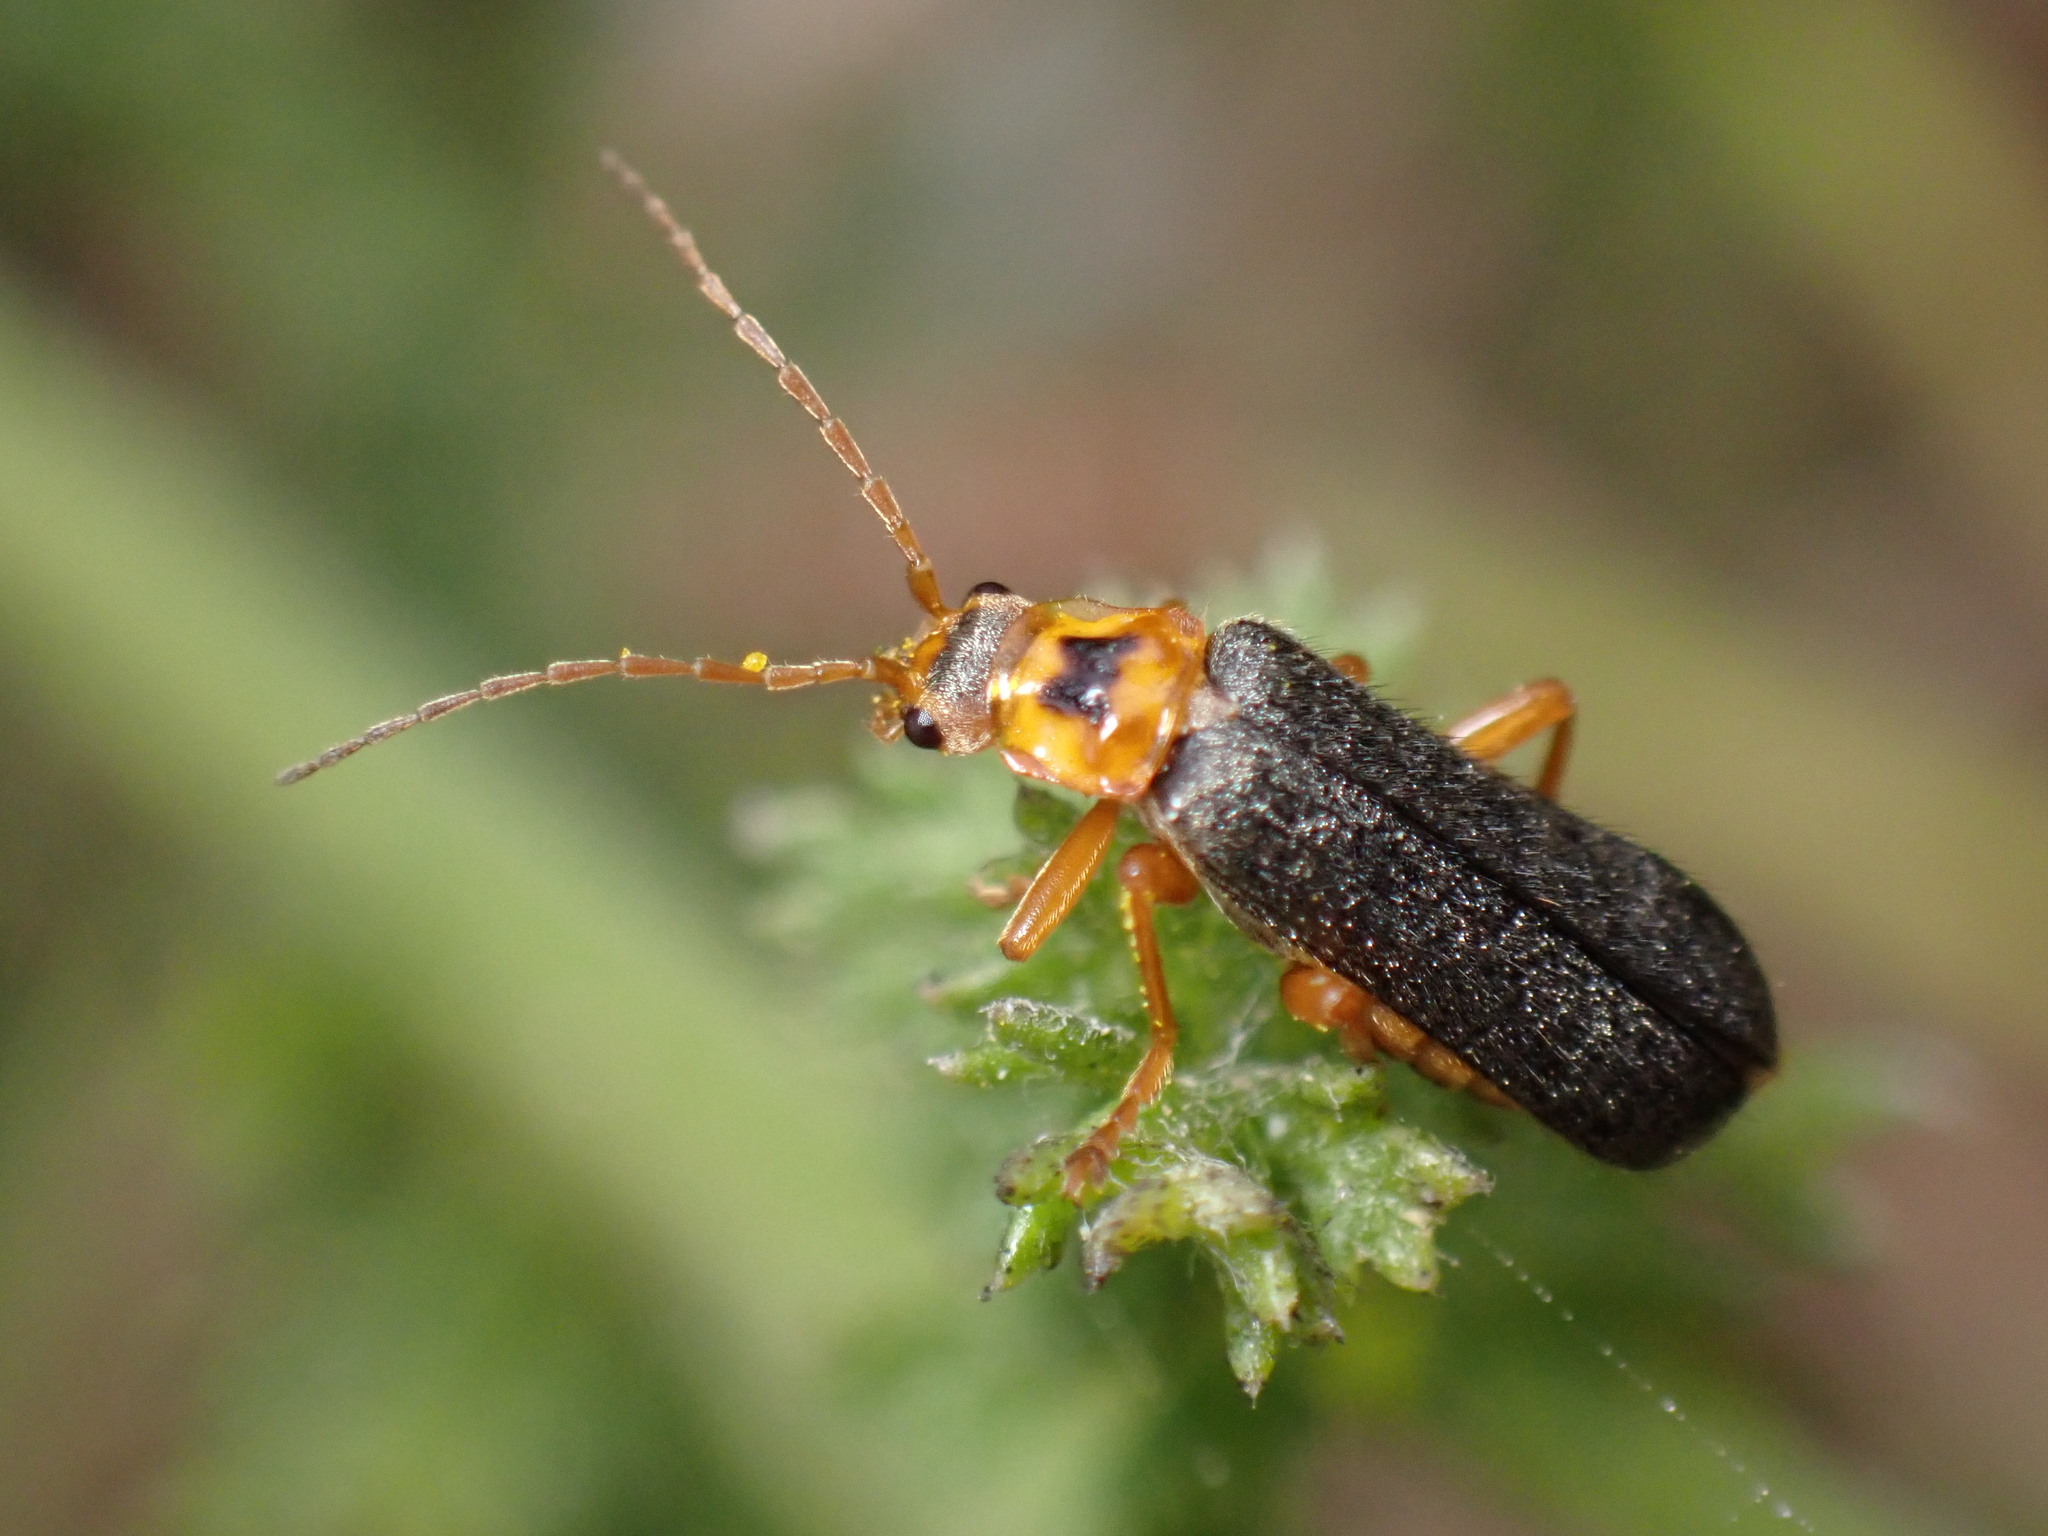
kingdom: Animalia
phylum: Arthropoda
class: Insecta
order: Coleoptera
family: Cantharidae
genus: Cultellunguis
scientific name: Cultellunguis americanus
